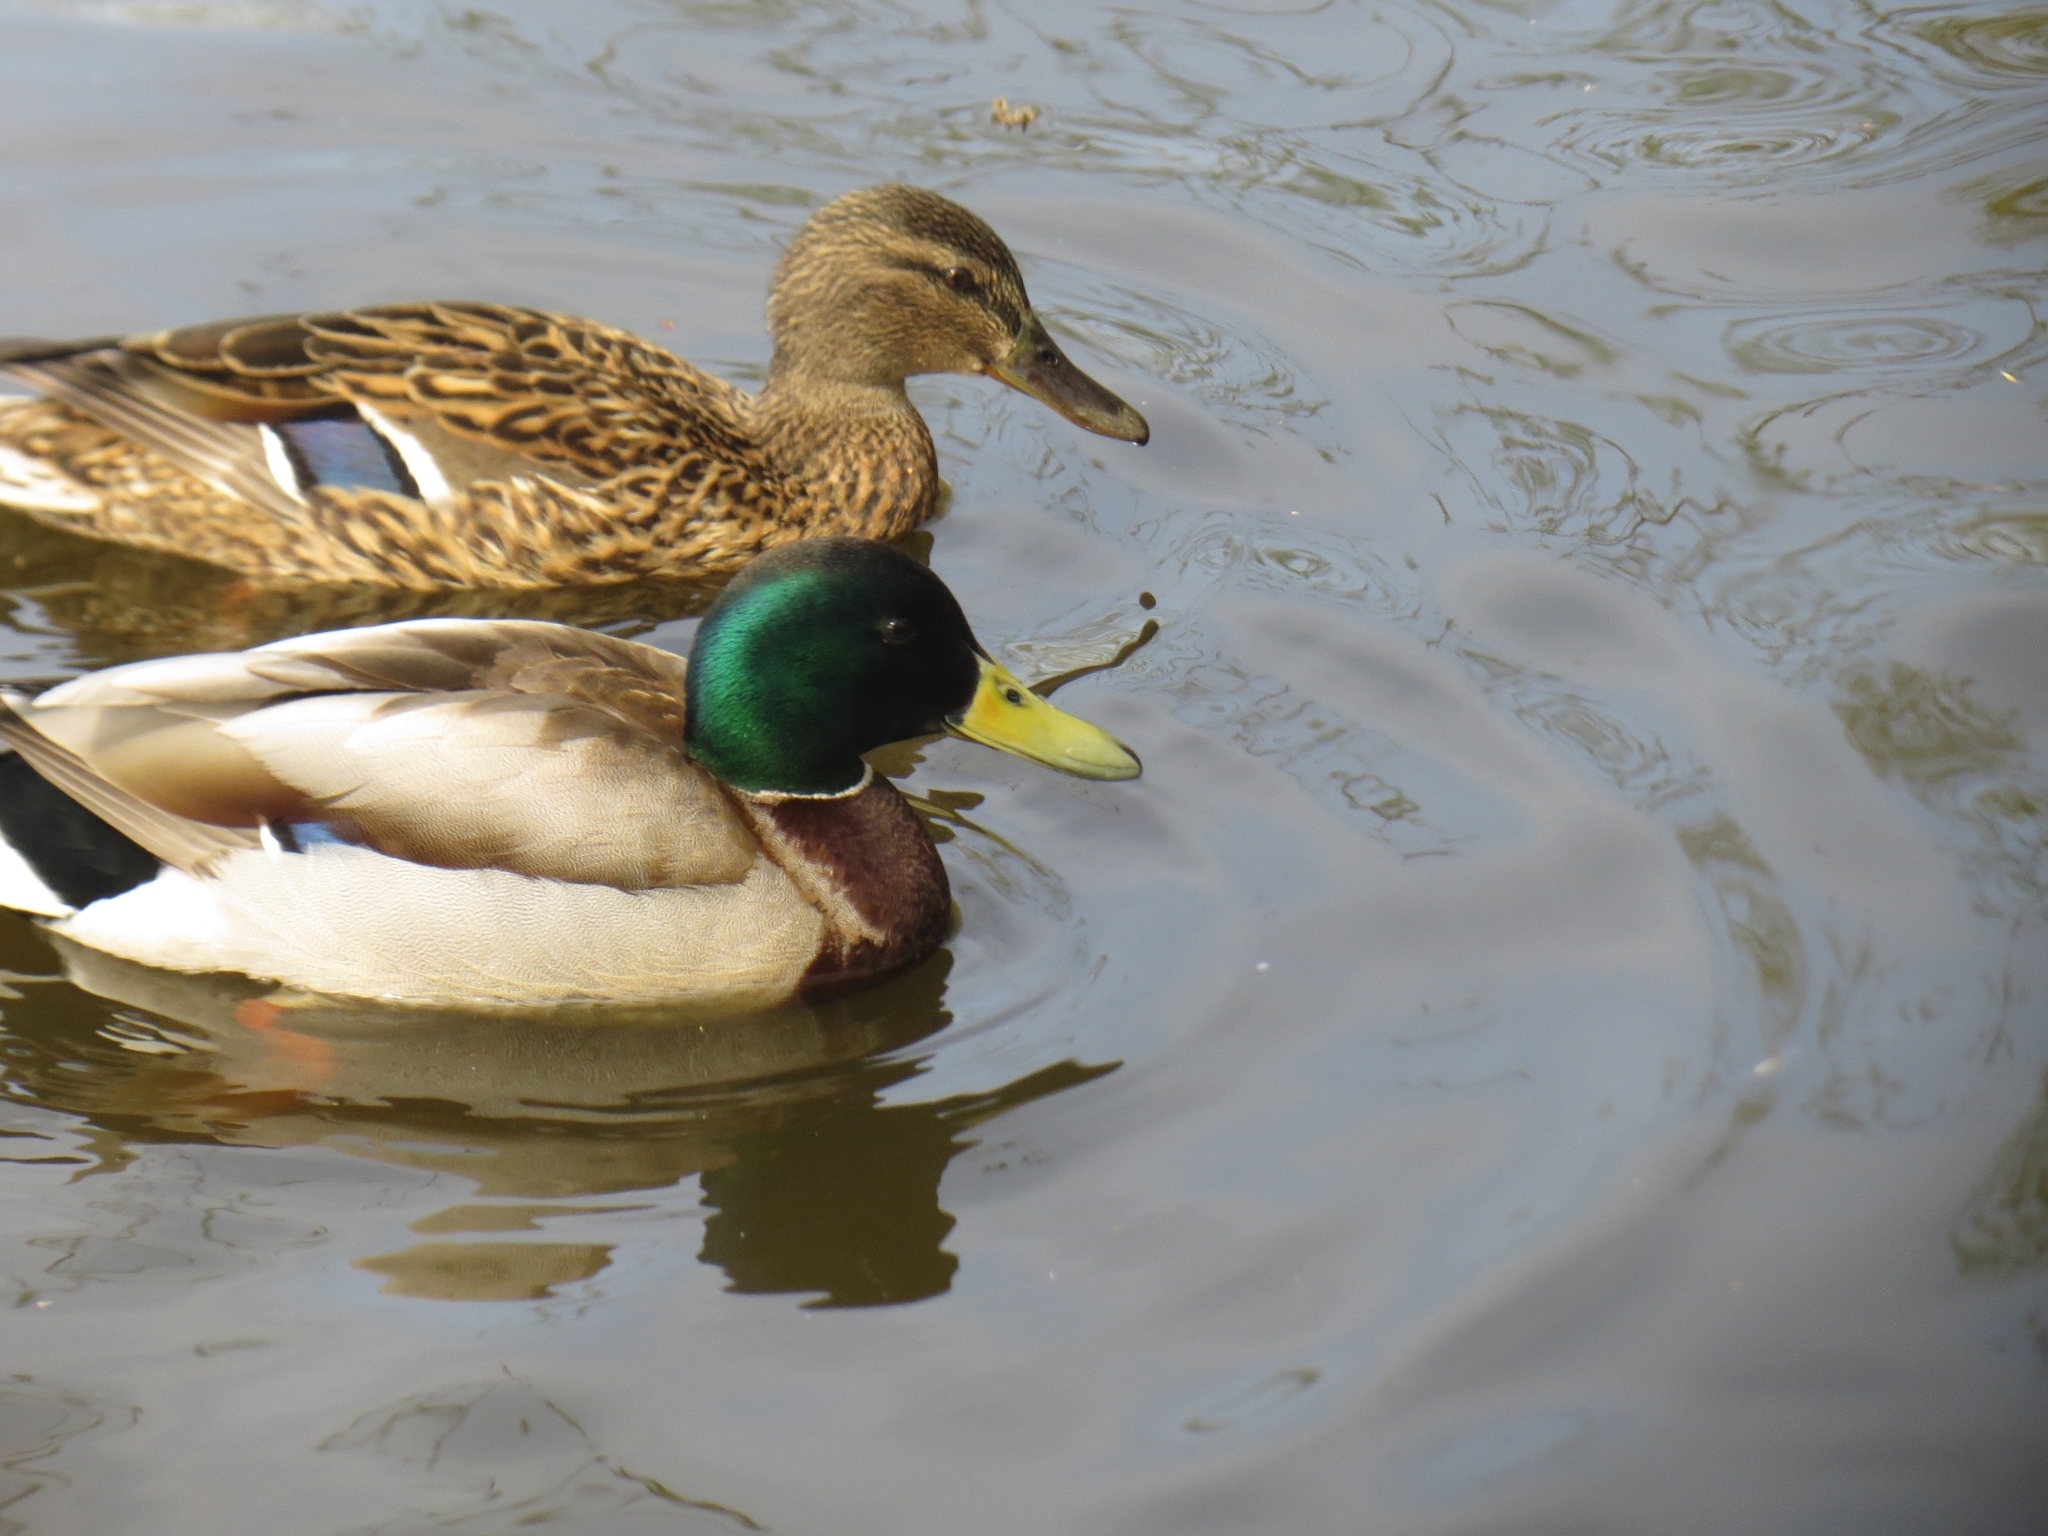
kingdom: Animalia
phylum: Chordata
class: Aves
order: Anseriformes
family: Anatidae
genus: Anas
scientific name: Anas platyrhynchos
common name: Mallard
